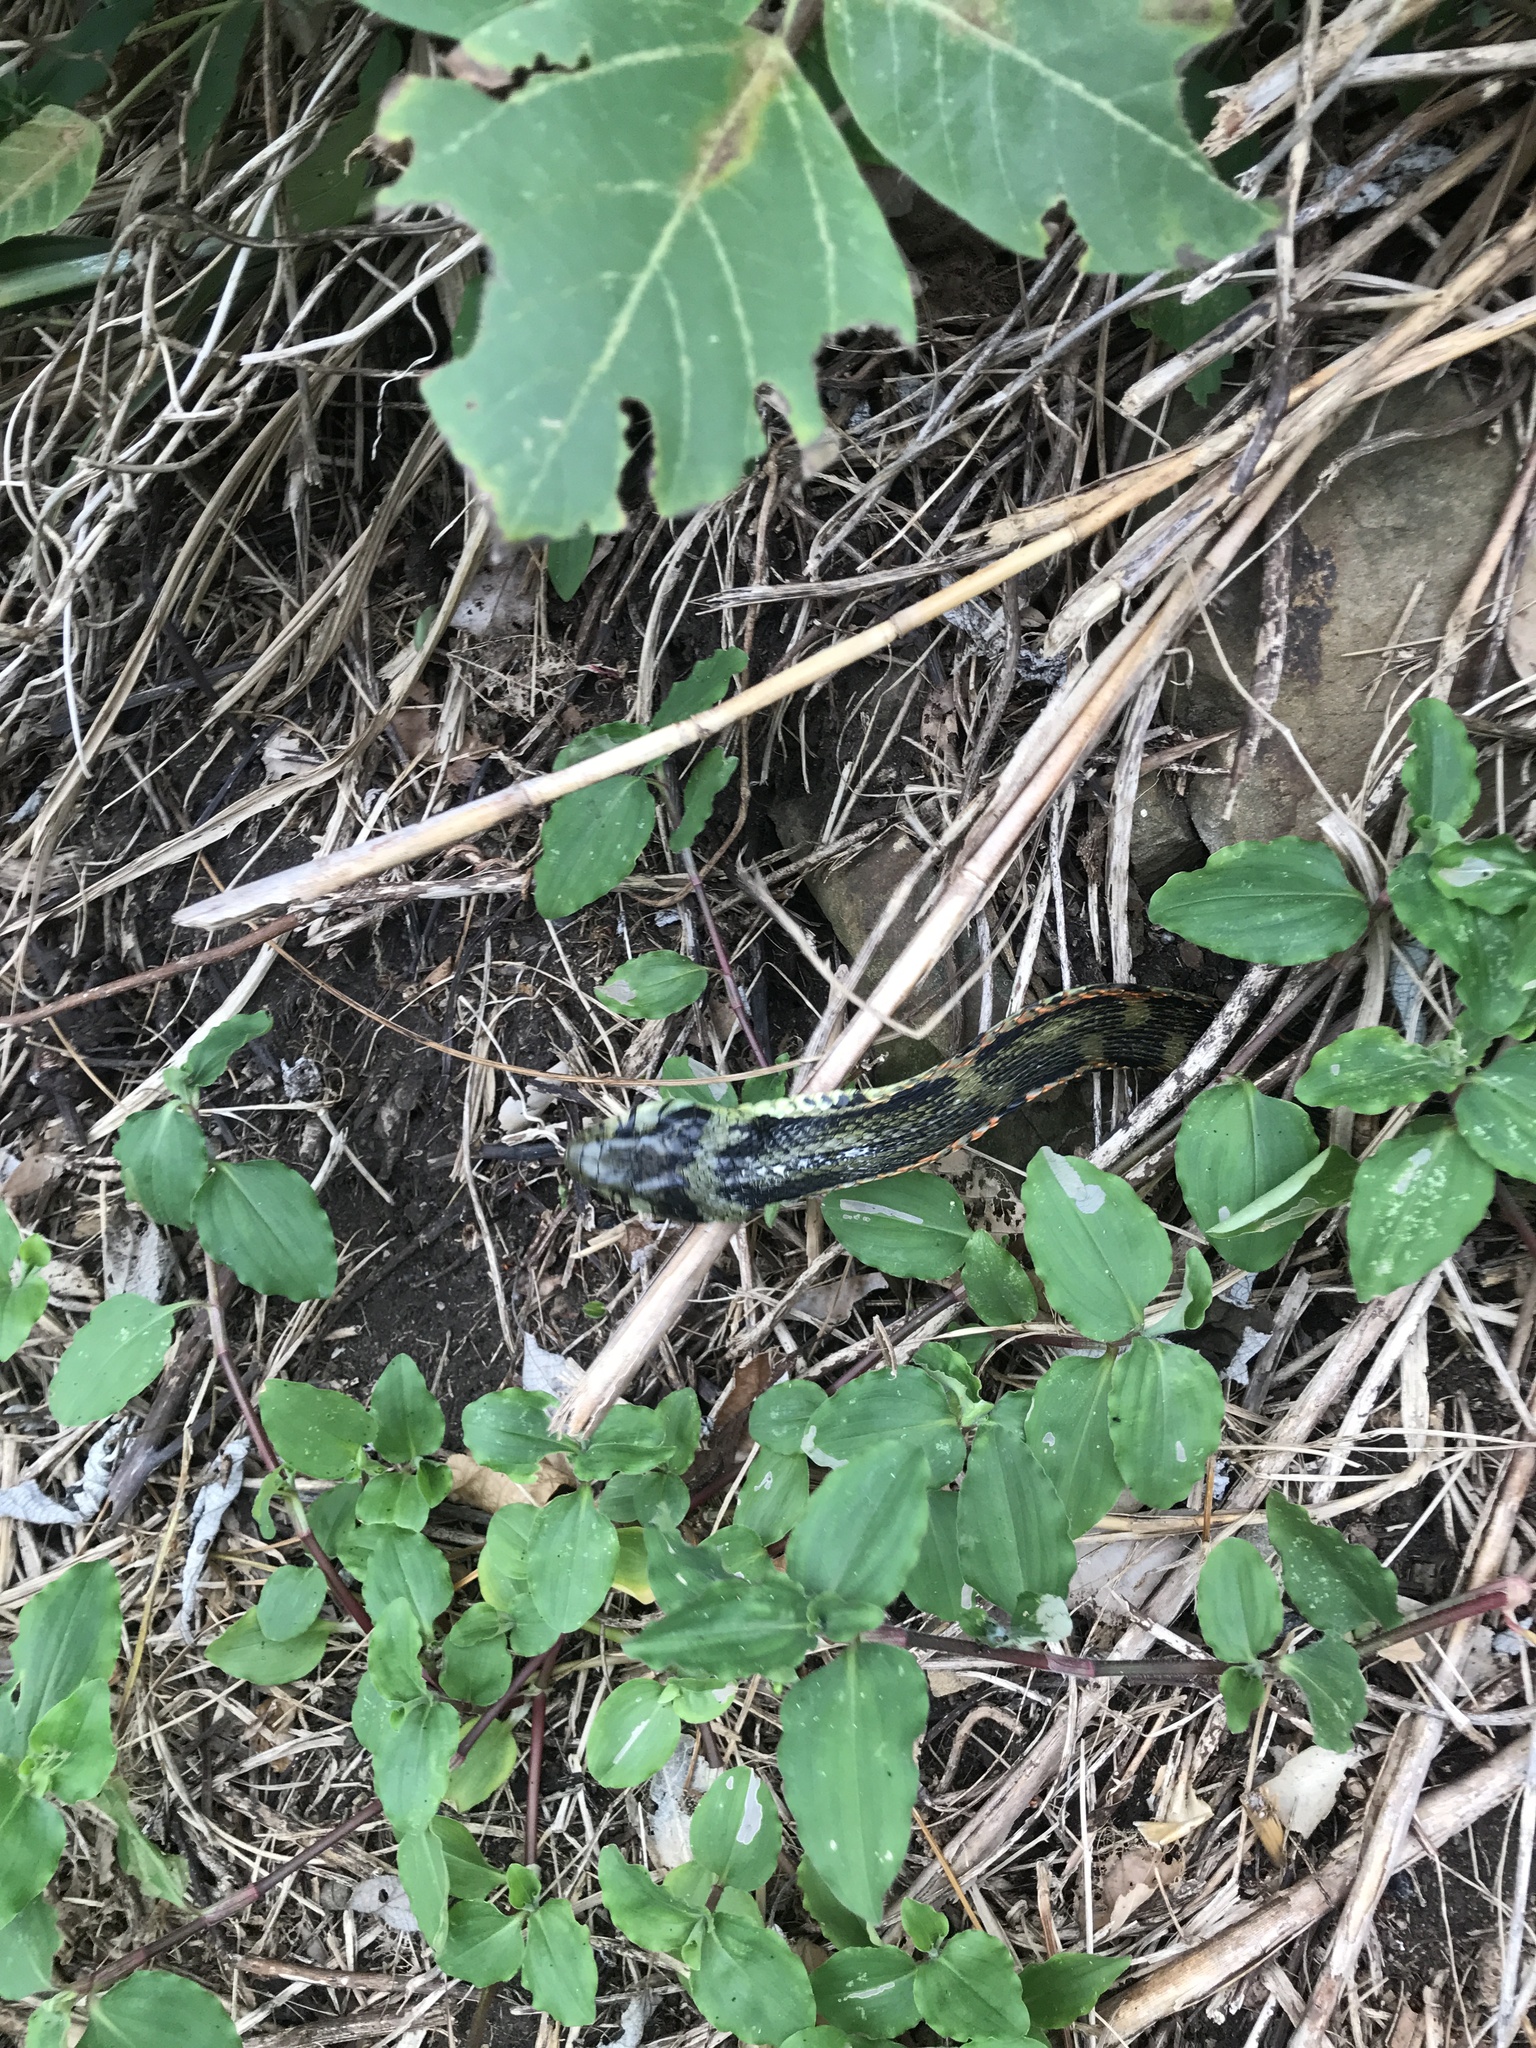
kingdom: Animalia
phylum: Chordata
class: Squamata
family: Colubridae
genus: Rhabdophis
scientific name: Rhabdophis tigrinus
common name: Tiger keelback
